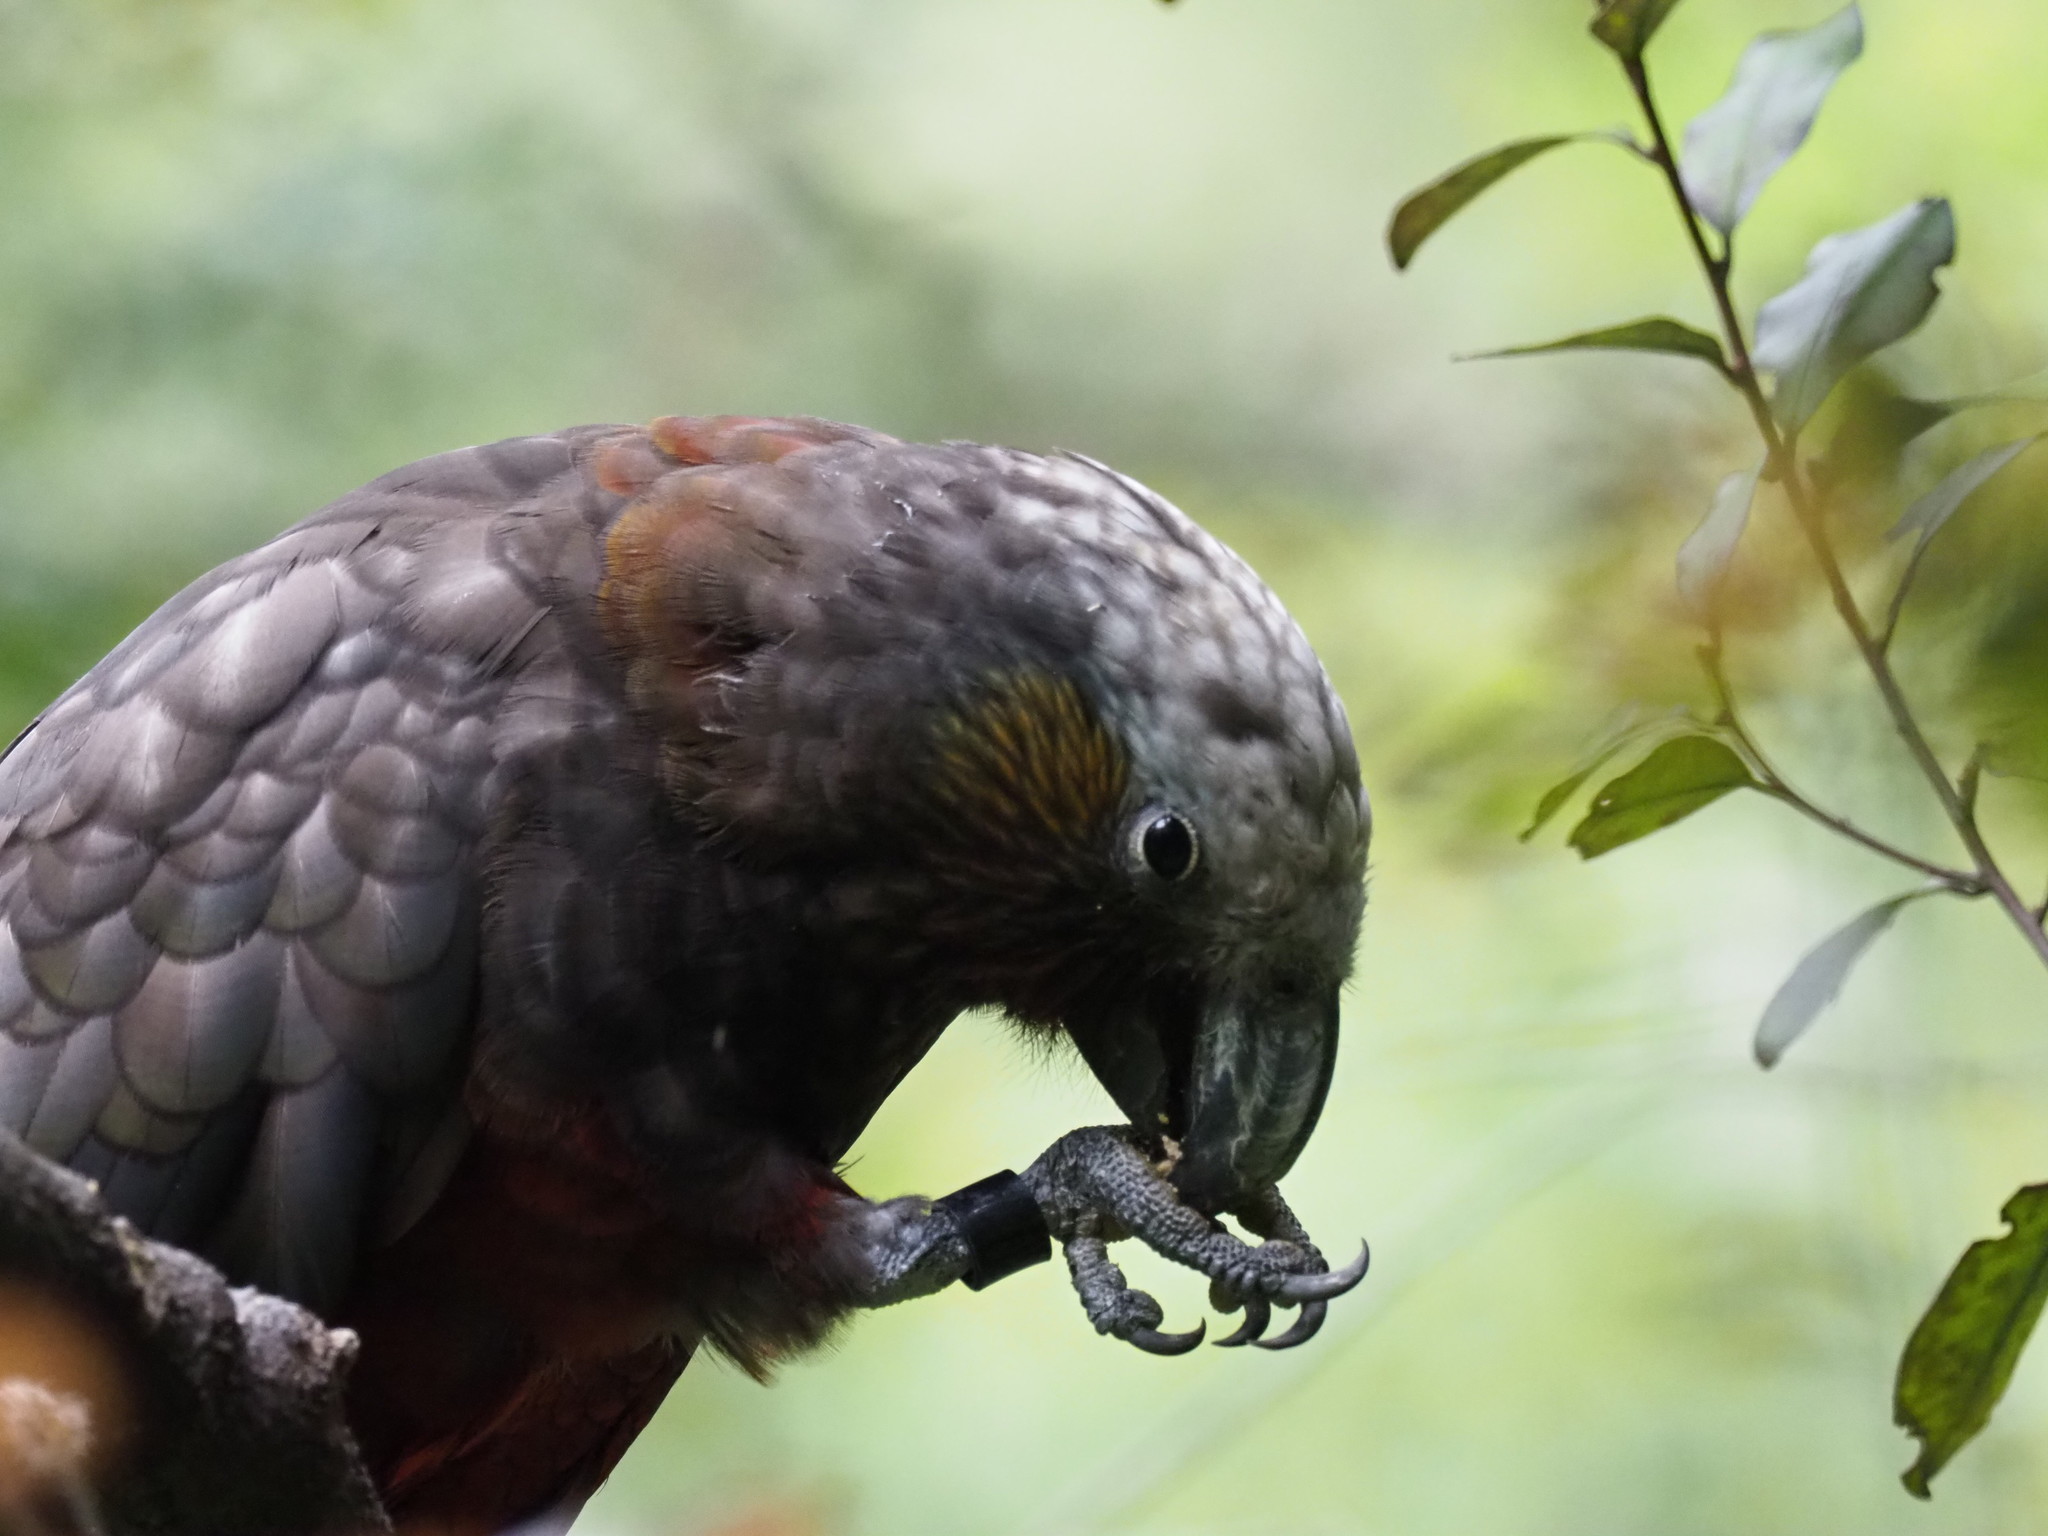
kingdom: Animalia
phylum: Chordata
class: Aves
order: Psittaciformes
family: Psittacidae
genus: Nestor
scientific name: Nestor meridionalis
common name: New zealand kaka
